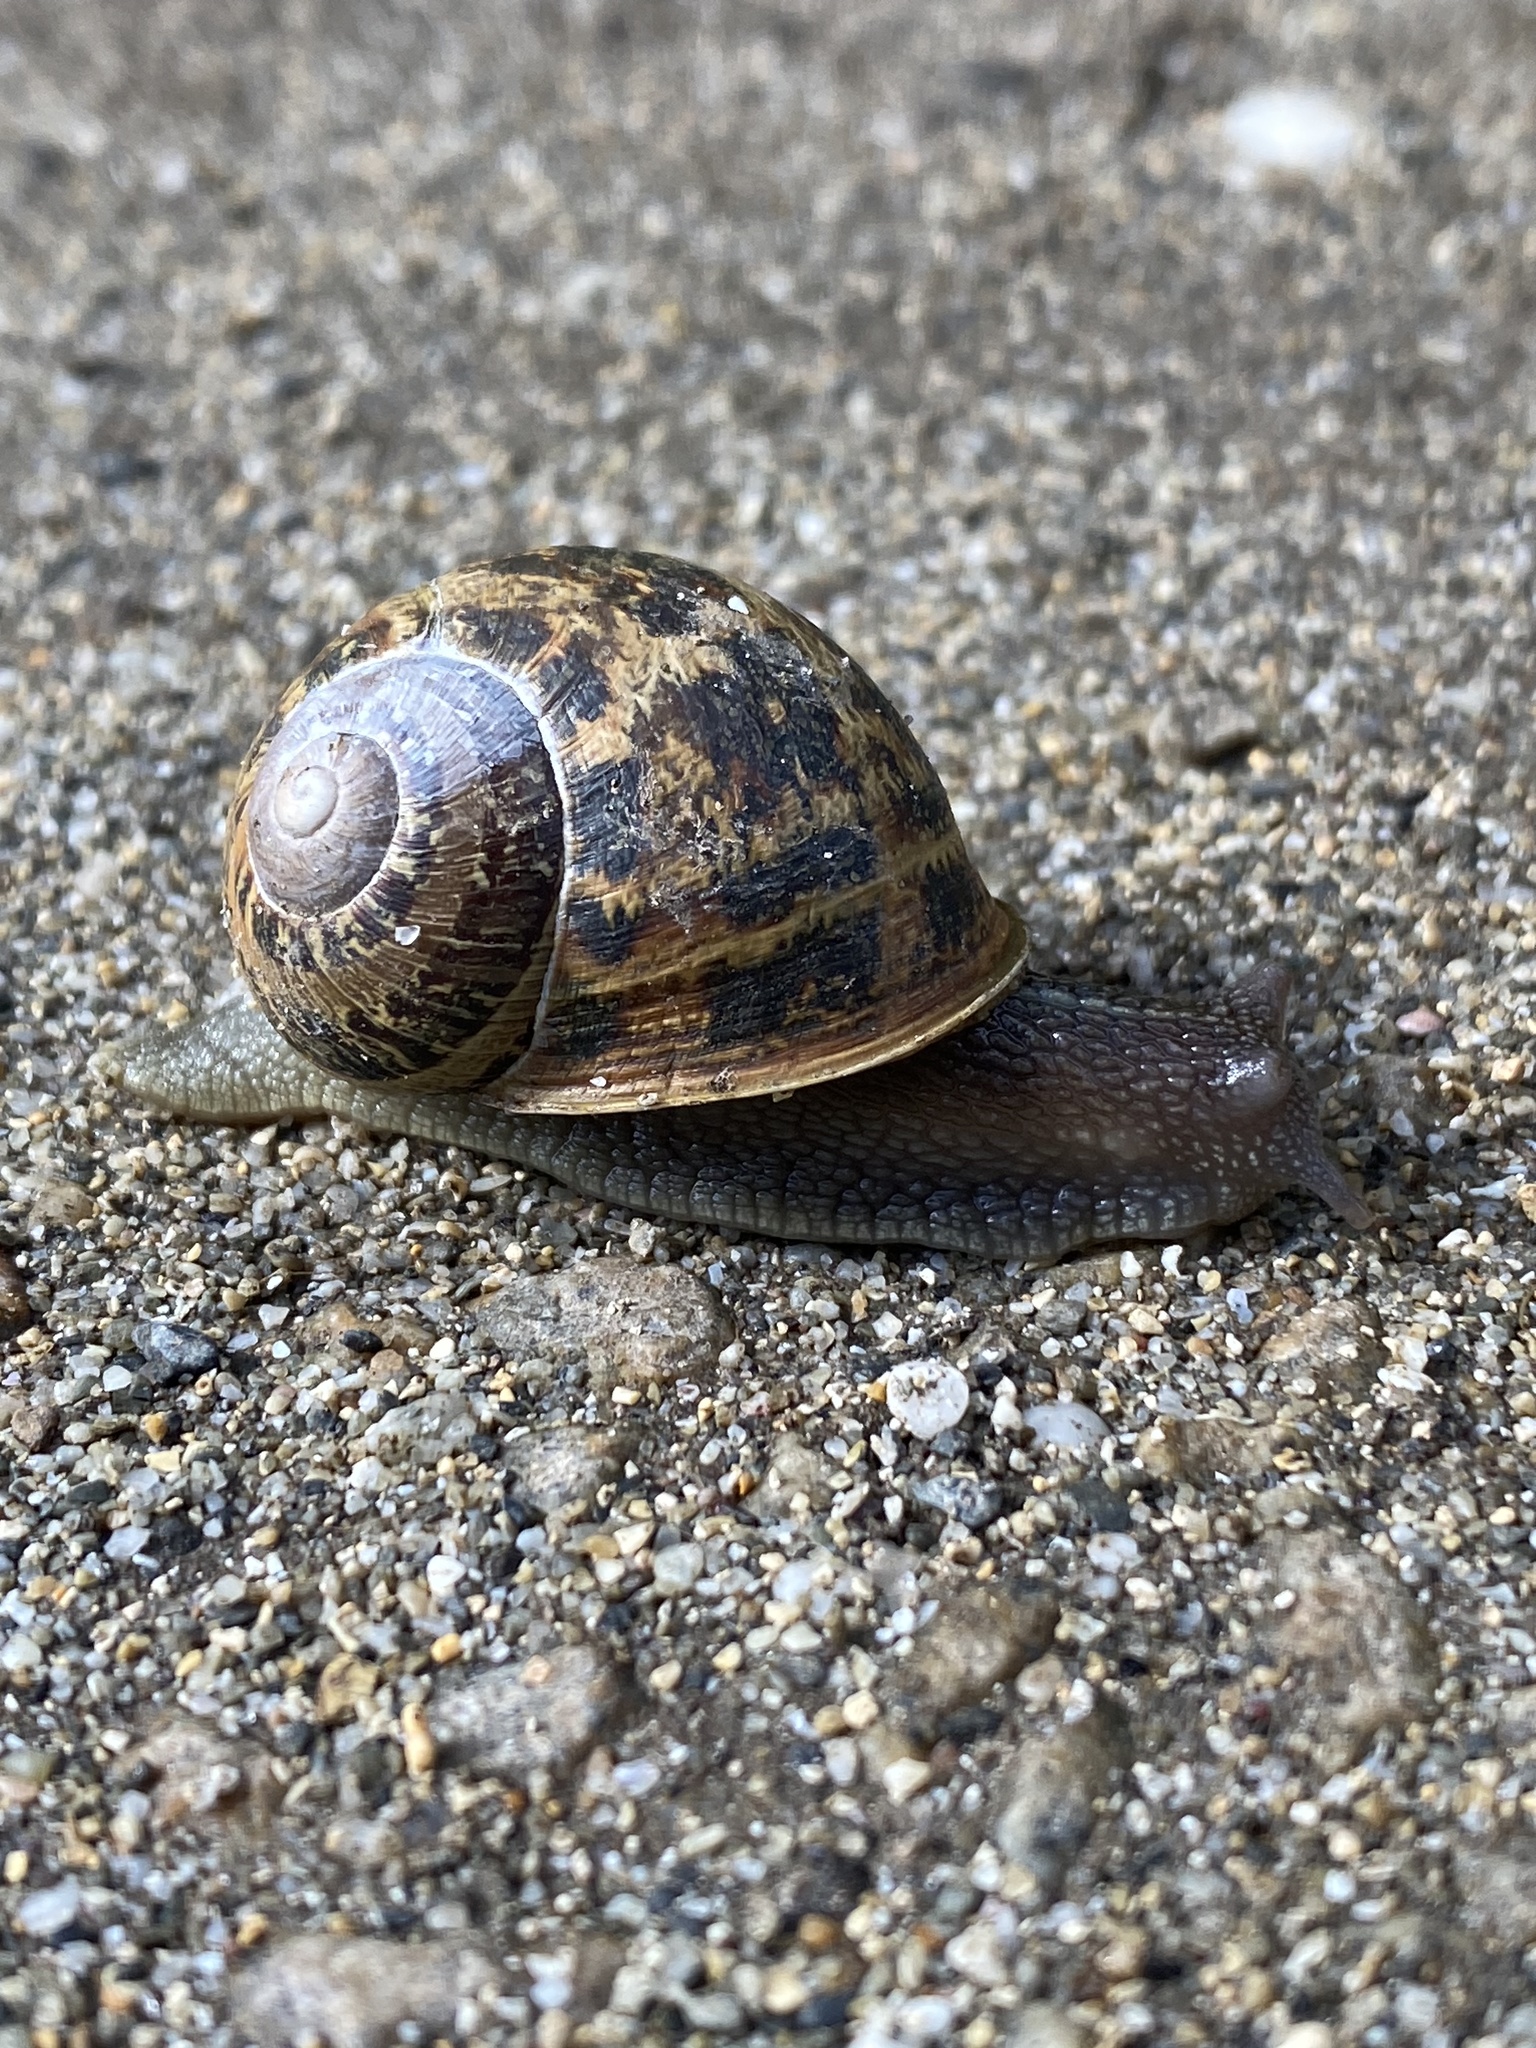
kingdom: Animalia
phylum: Mollusca
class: Gastropoda
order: Stylommatophora
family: Helicidae
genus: Cornu
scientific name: Cornu aspersum
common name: Brown garden snail
